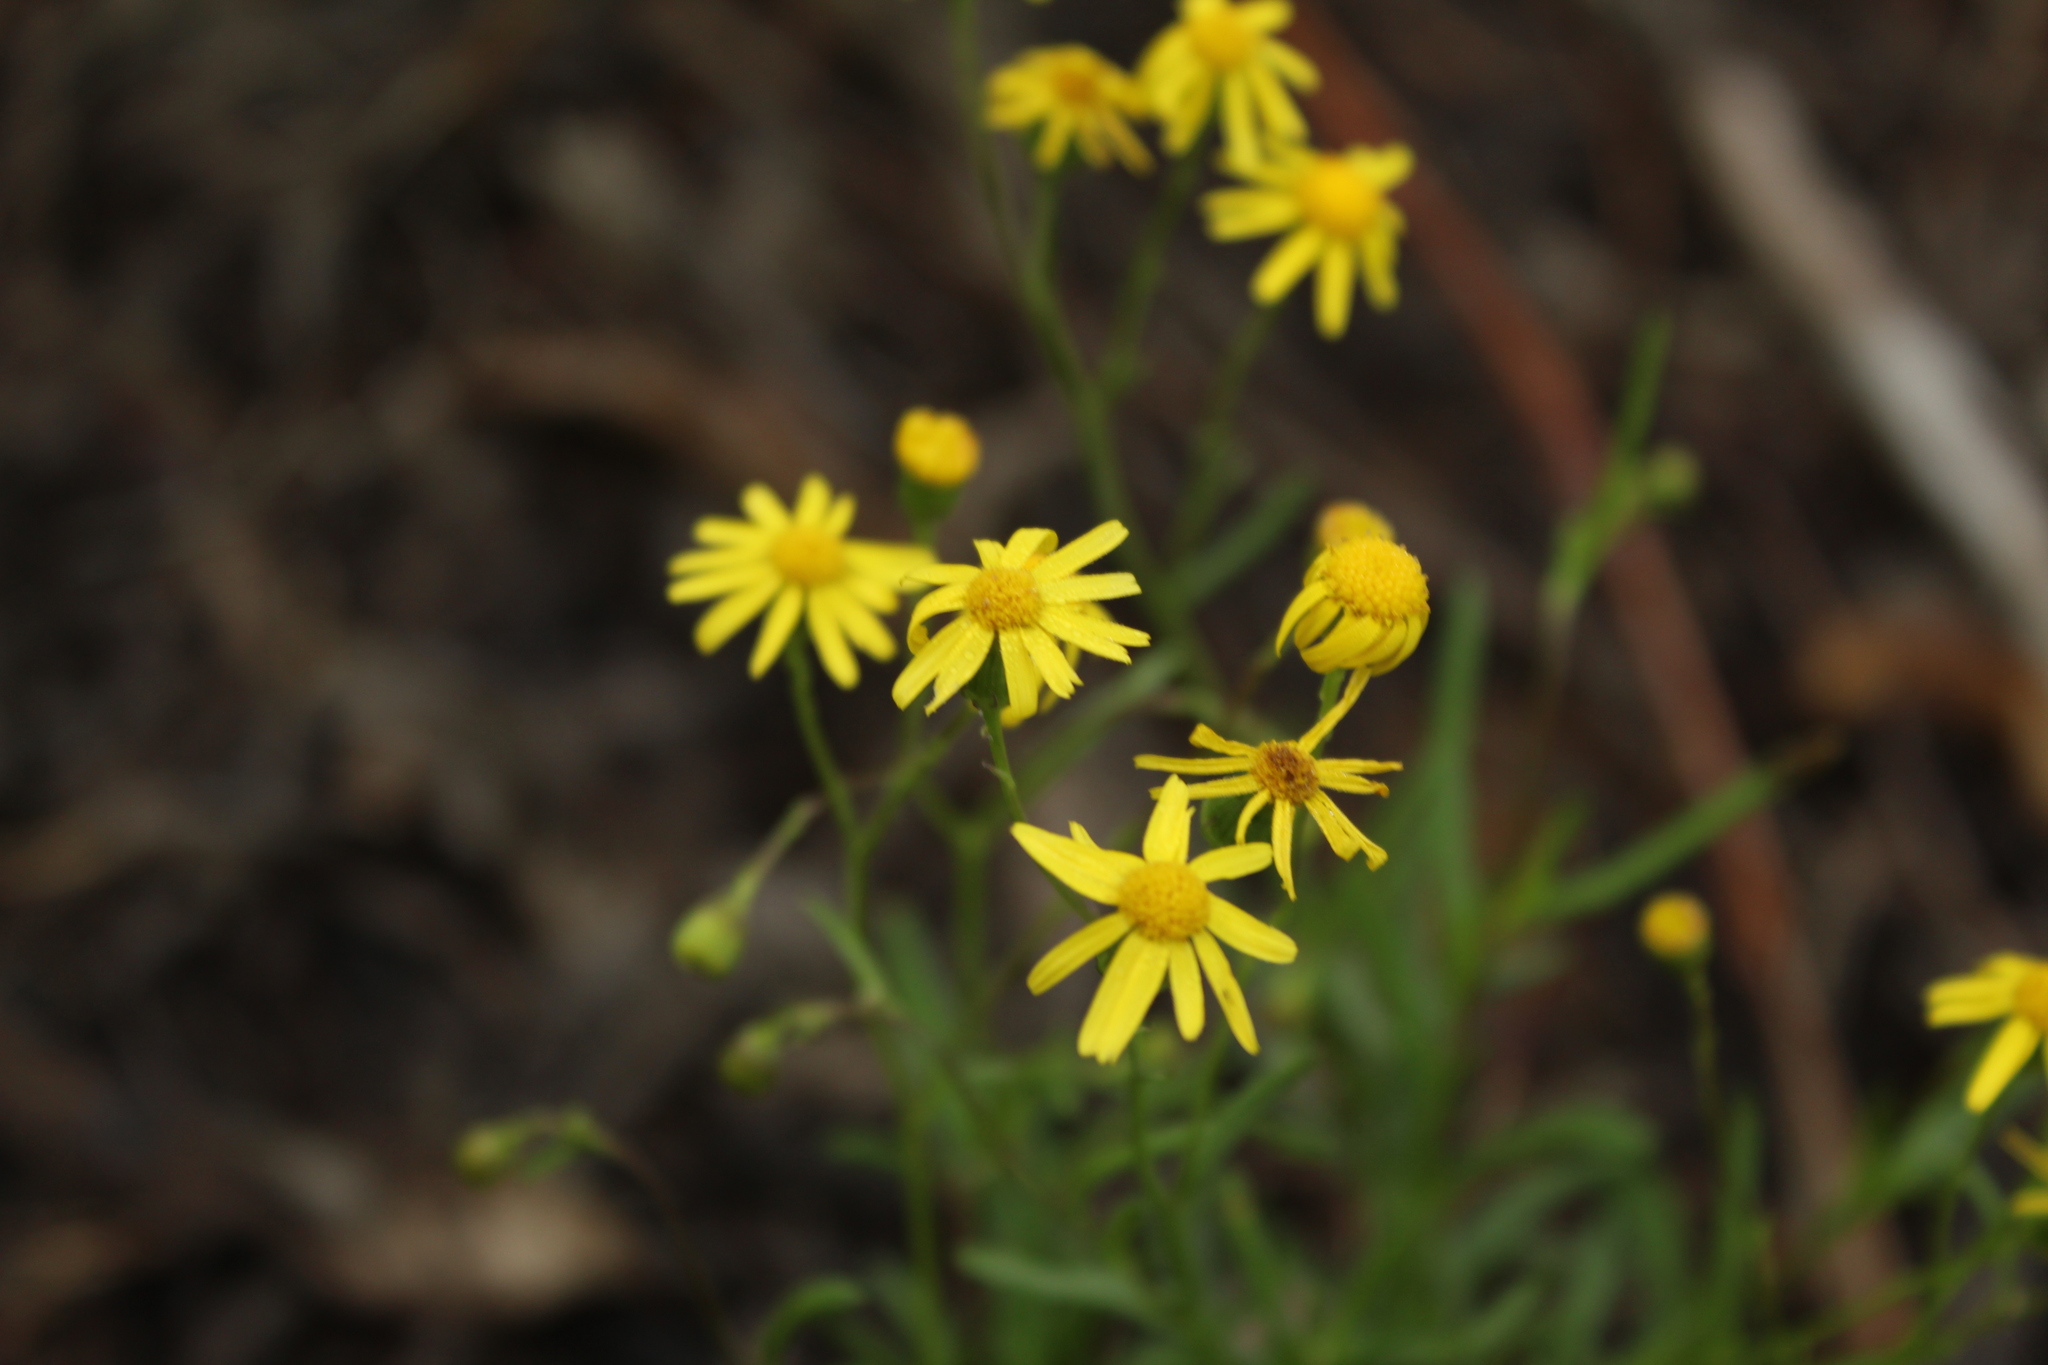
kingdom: Plantae
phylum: Tracheophyta
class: Magnoliopsida
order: Asterales
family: Asteraceae
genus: Senecio
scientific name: Senecio madagascariensis
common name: Madagascar ragwort
